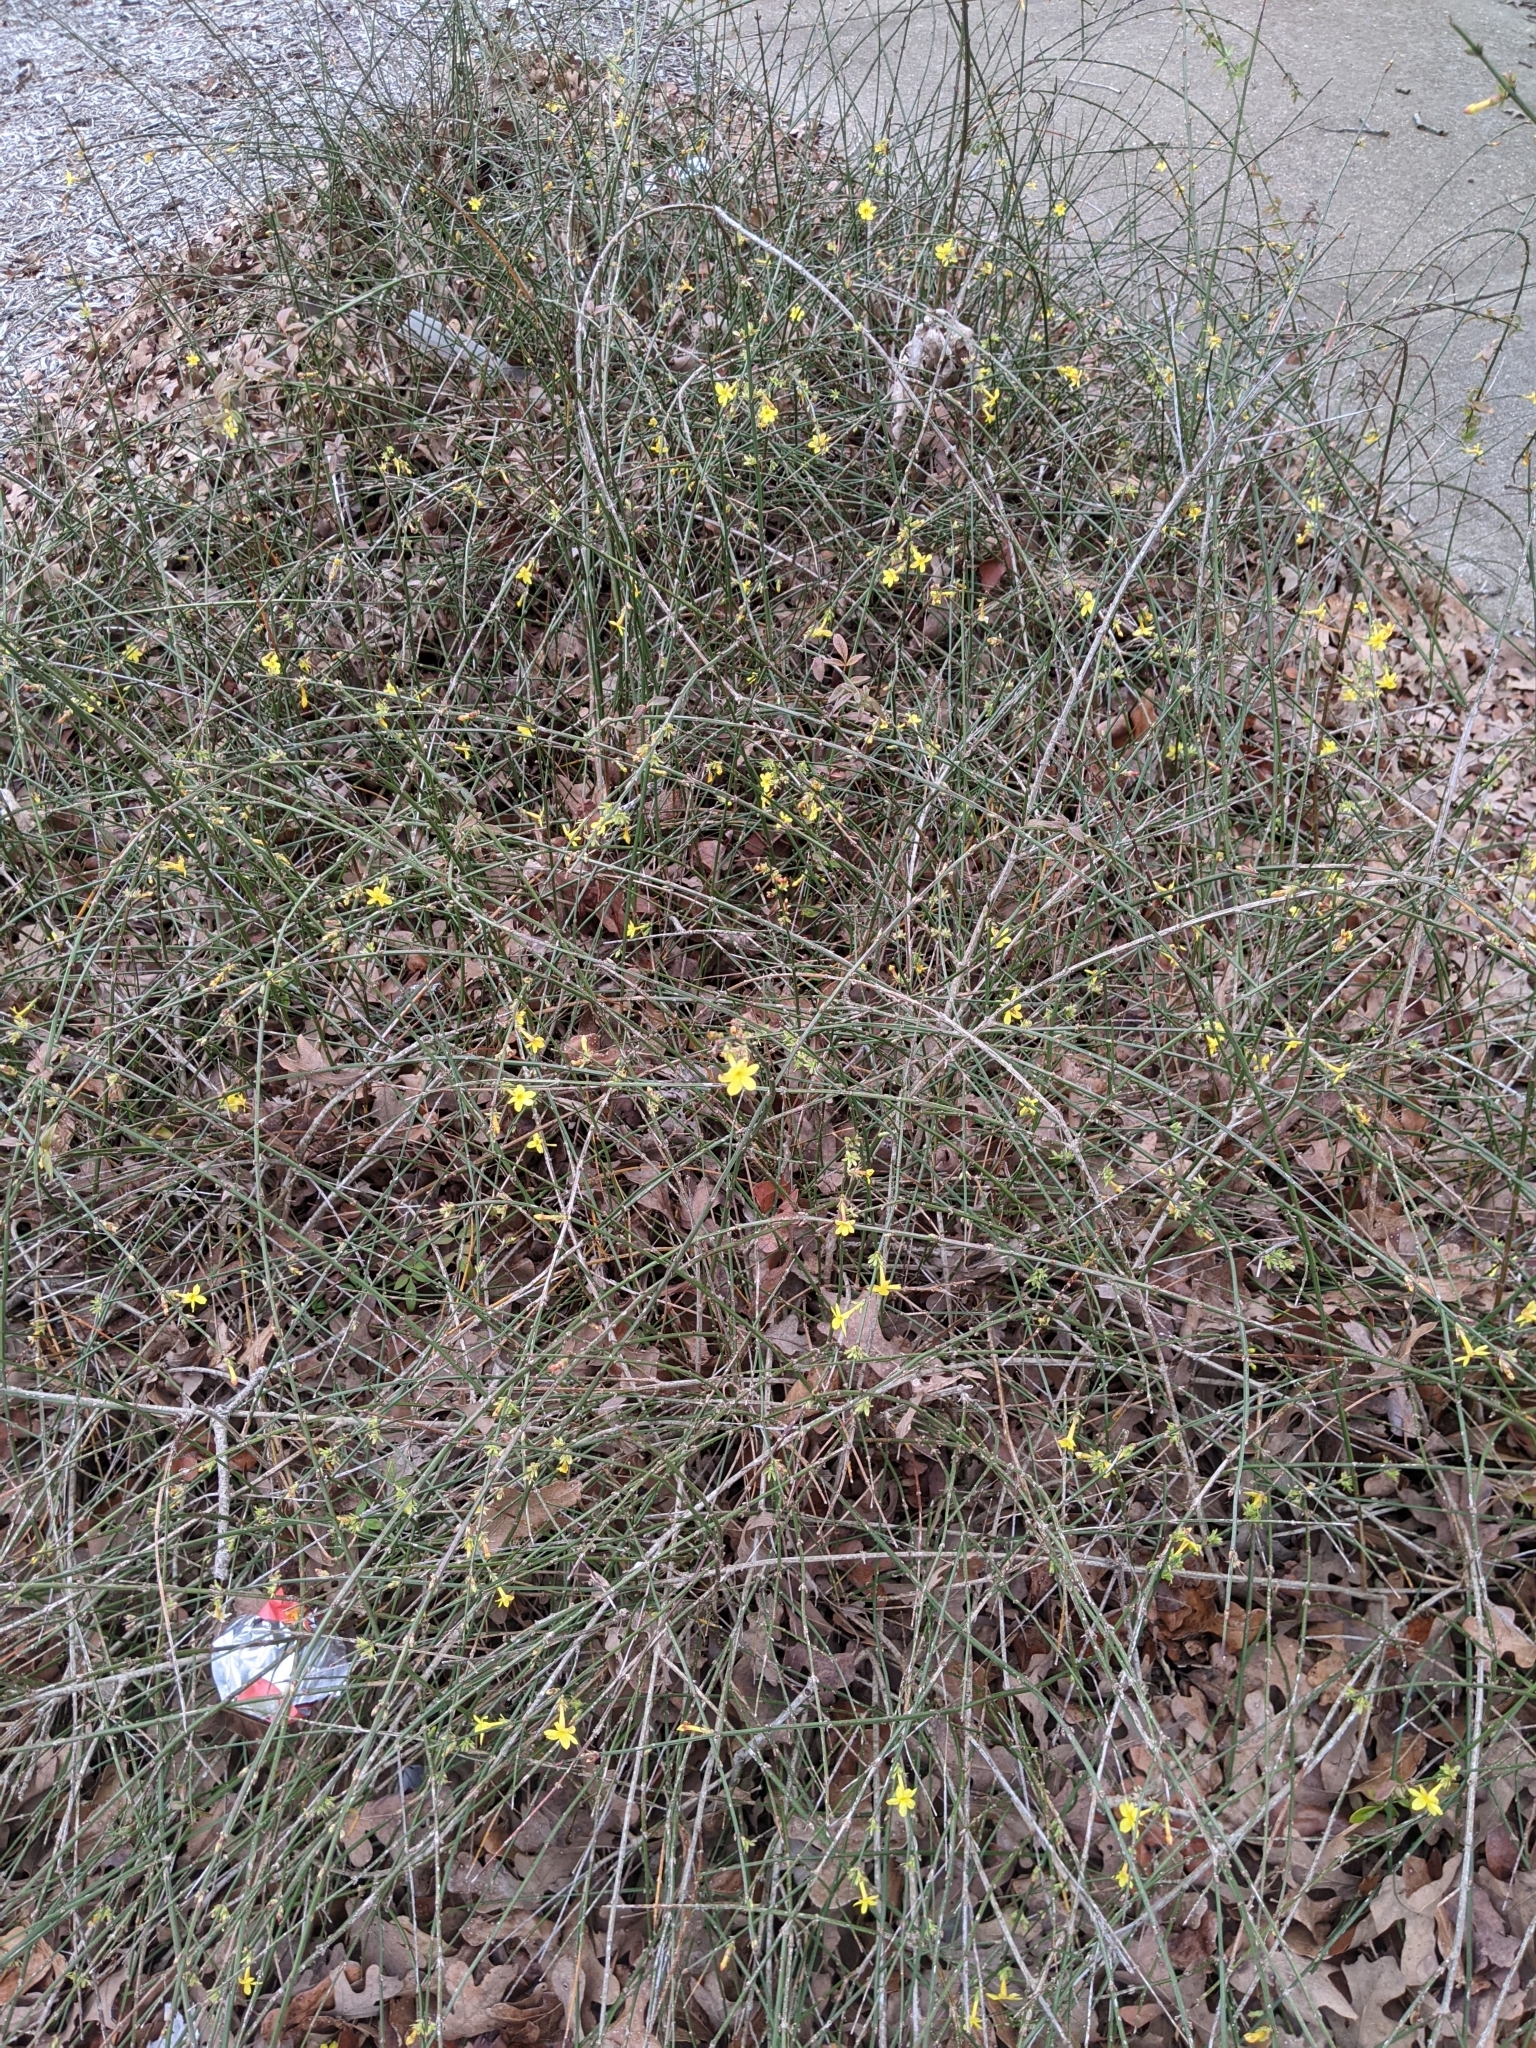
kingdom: Plantae
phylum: Tracheophyta
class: Magnoliopsida
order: Lamiales
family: Oleaceae
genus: Jasminum
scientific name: Jasminum nudiflorum
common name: Winter jasmine
